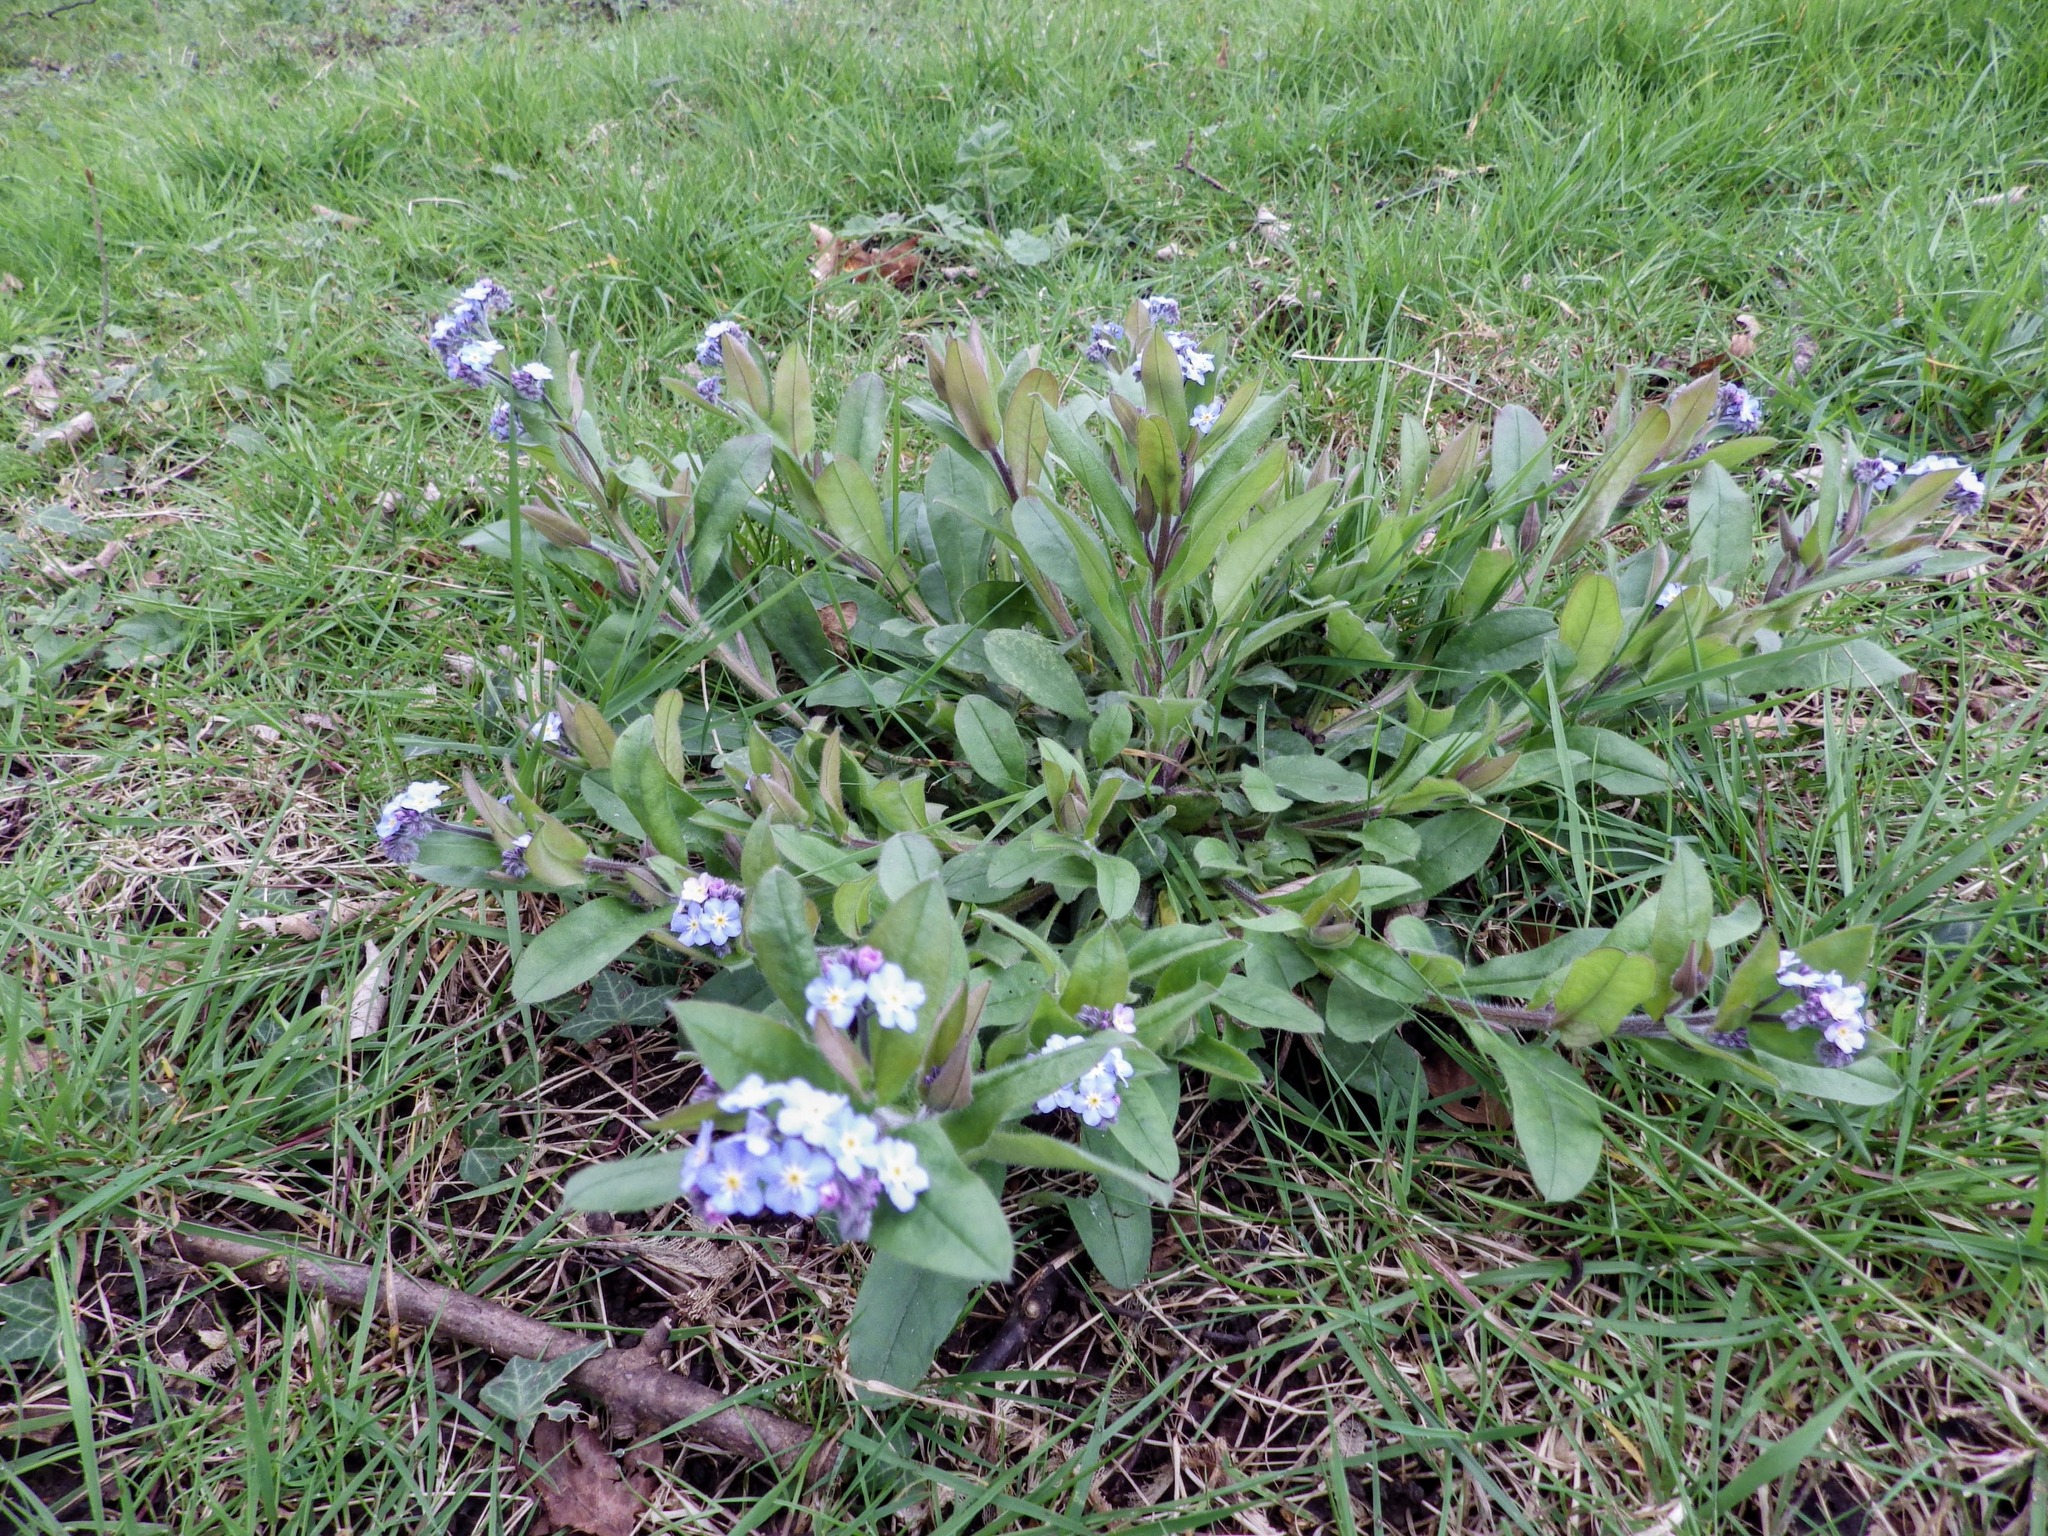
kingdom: Plantae
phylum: Tracheophyta
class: Magnoliopsida
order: Boraginales
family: Boraginaceae
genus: Myosotis
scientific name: Myosotis sylvatica
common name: Wood forget-me-not
